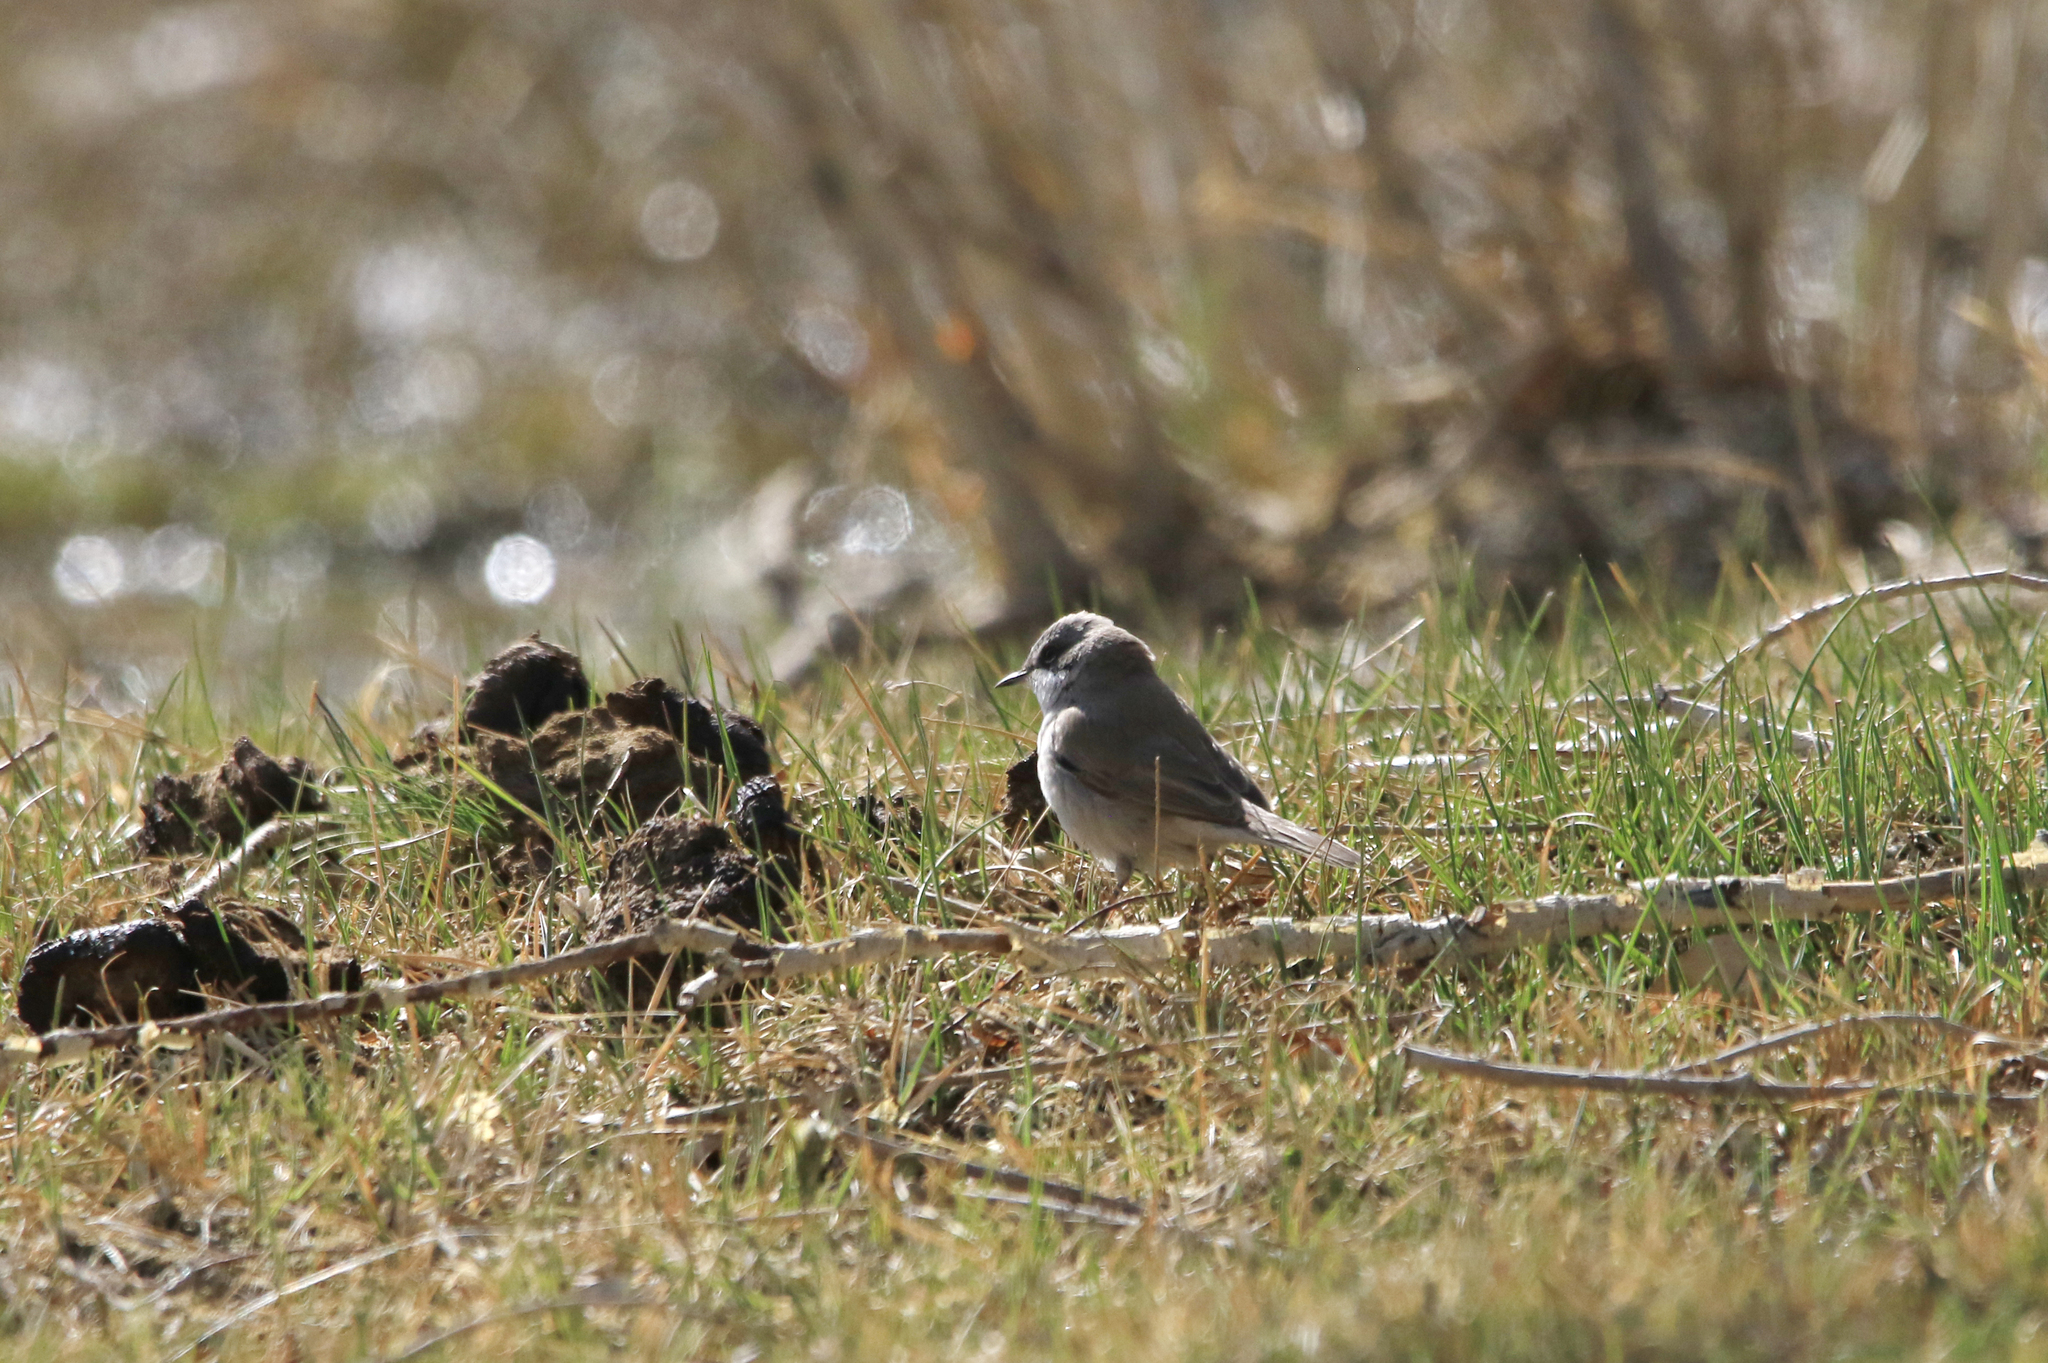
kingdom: Animalia
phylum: Chordata
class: Aves
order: Passeriformes
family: Sylviidae
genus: Sylvia
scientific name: Sylvia communis
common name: Common whitethroat
